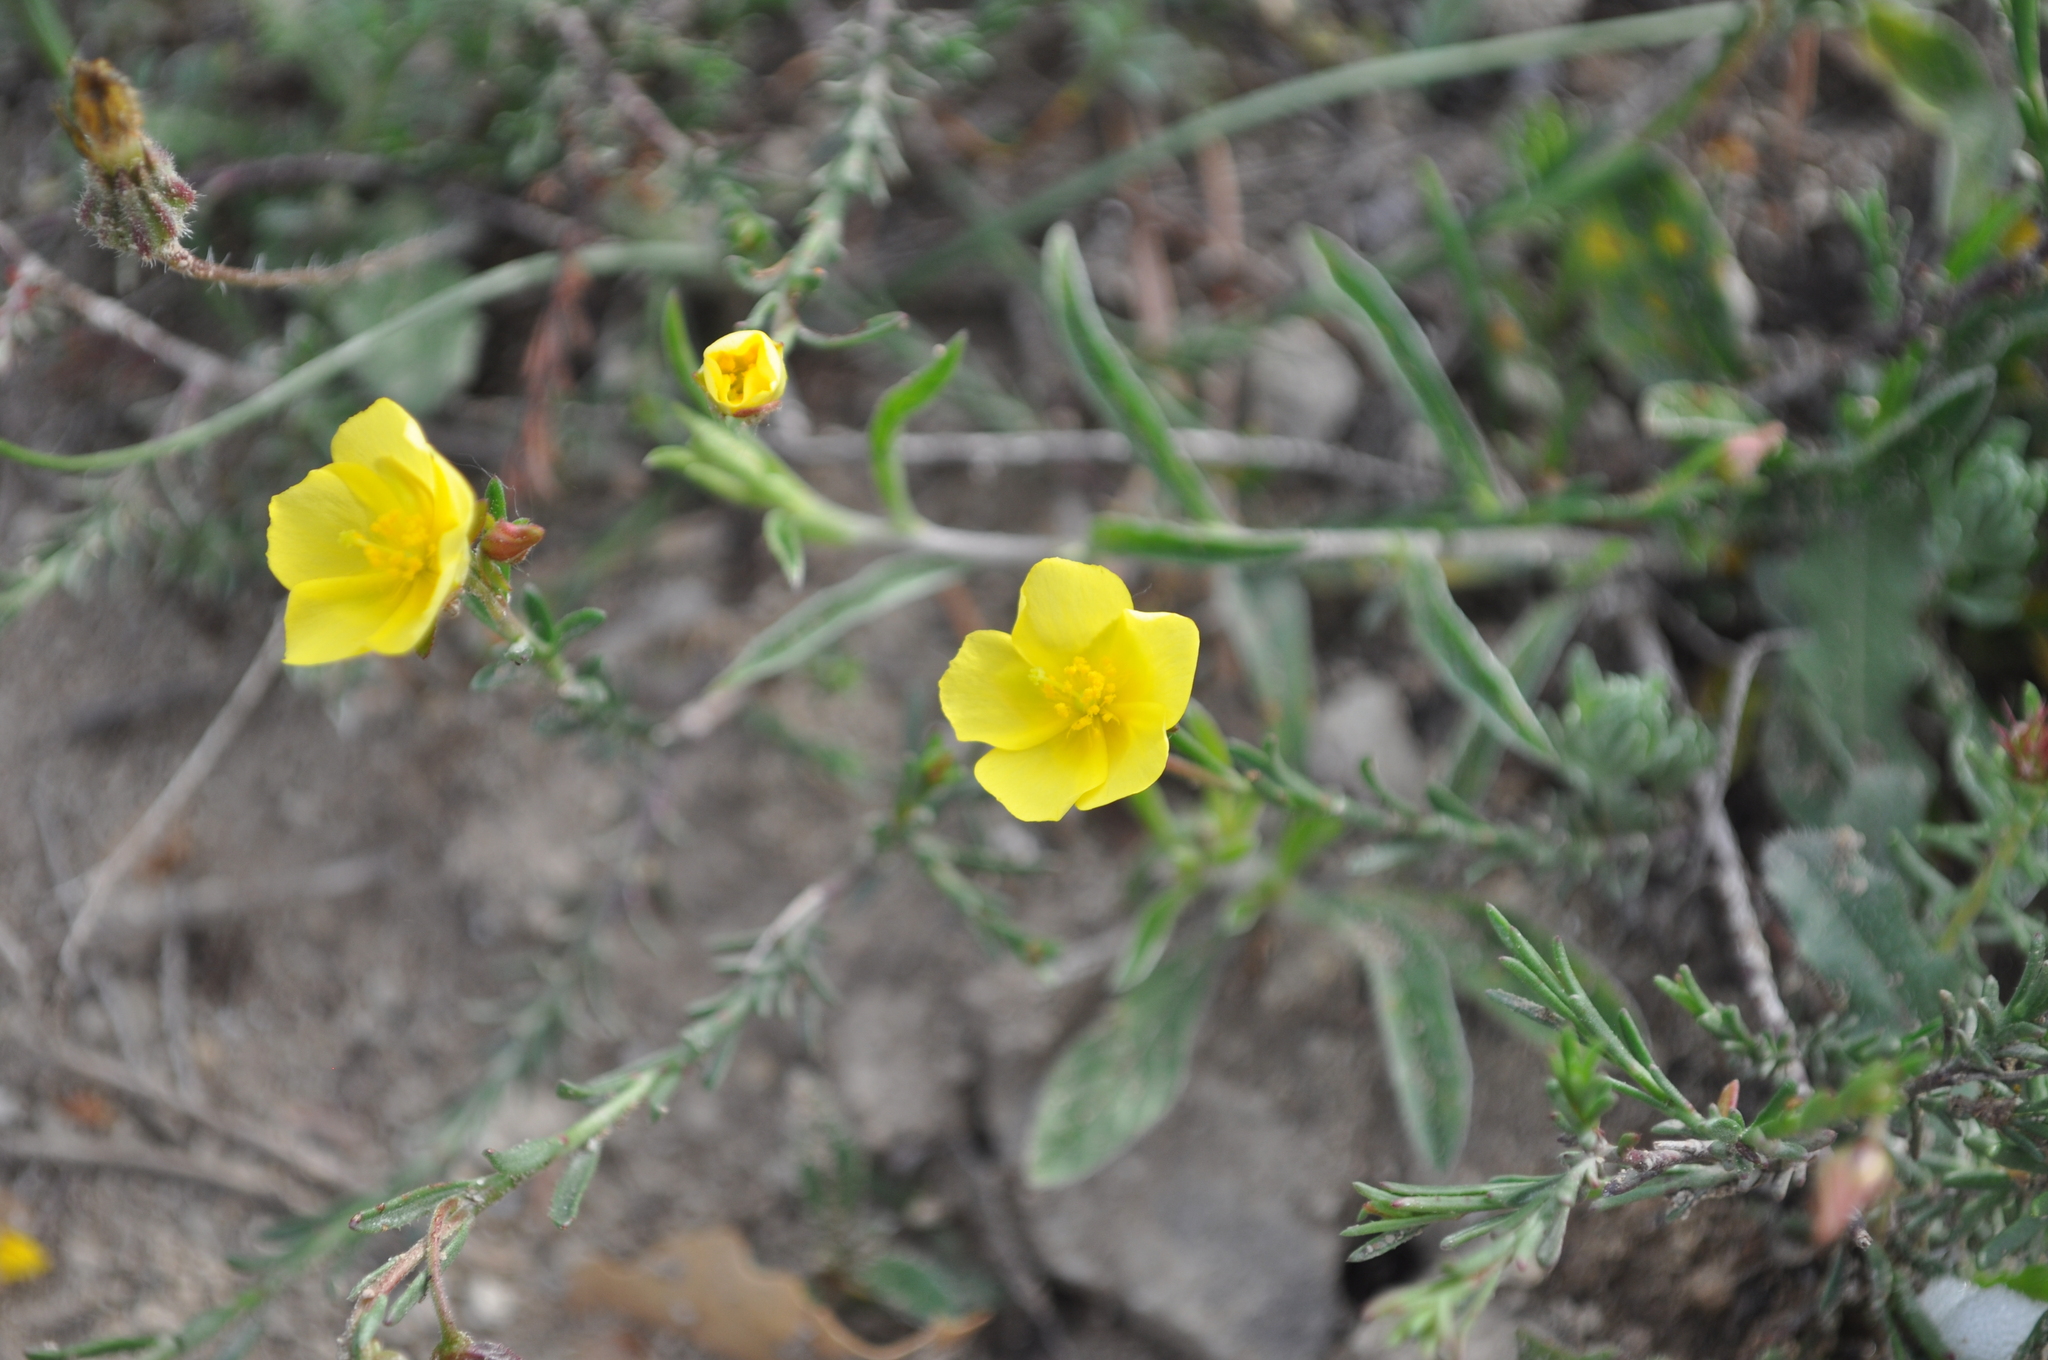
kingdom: Plantae
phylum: Tracheophyta
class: Magnoliopsida
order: Malvales
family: Cistaceae
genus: Fumana
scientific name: Fumana ericifolia
